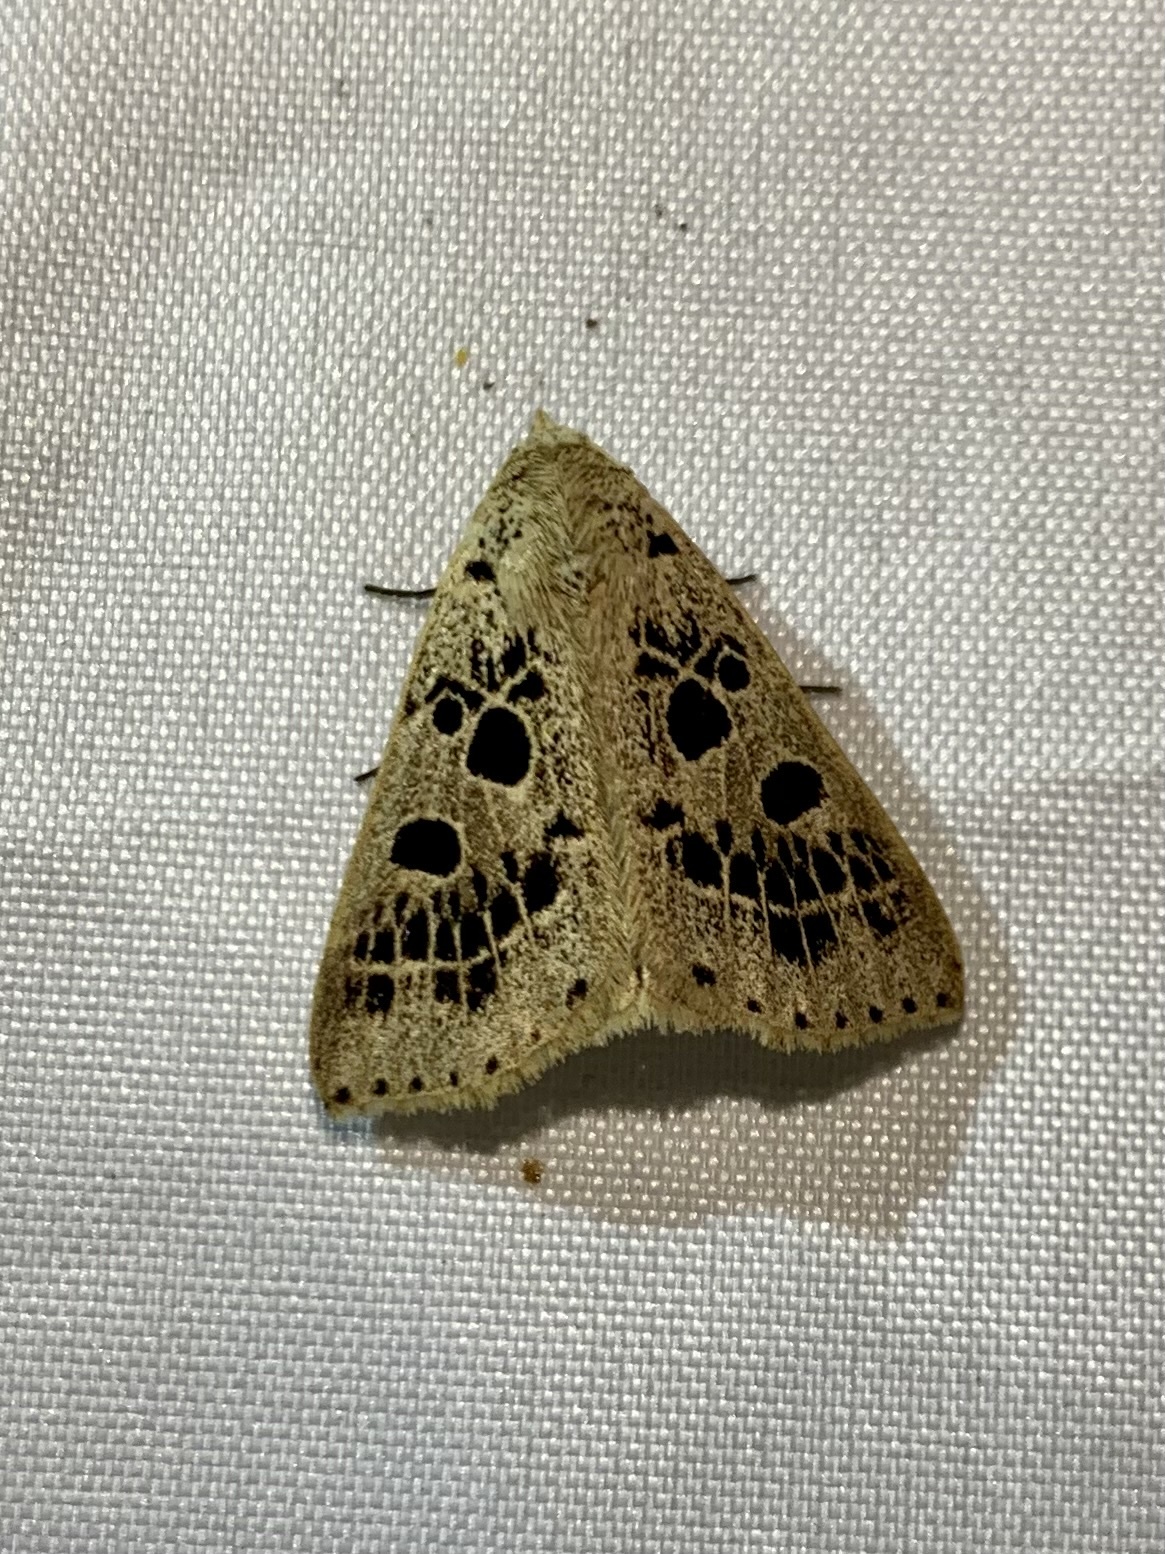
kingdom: Animalia
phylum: Arthropoda
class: Insecta
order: Lepidoptera
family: Erebidae
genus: Scolecocampa
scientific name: Scolecocampa Herminodes tessellata
